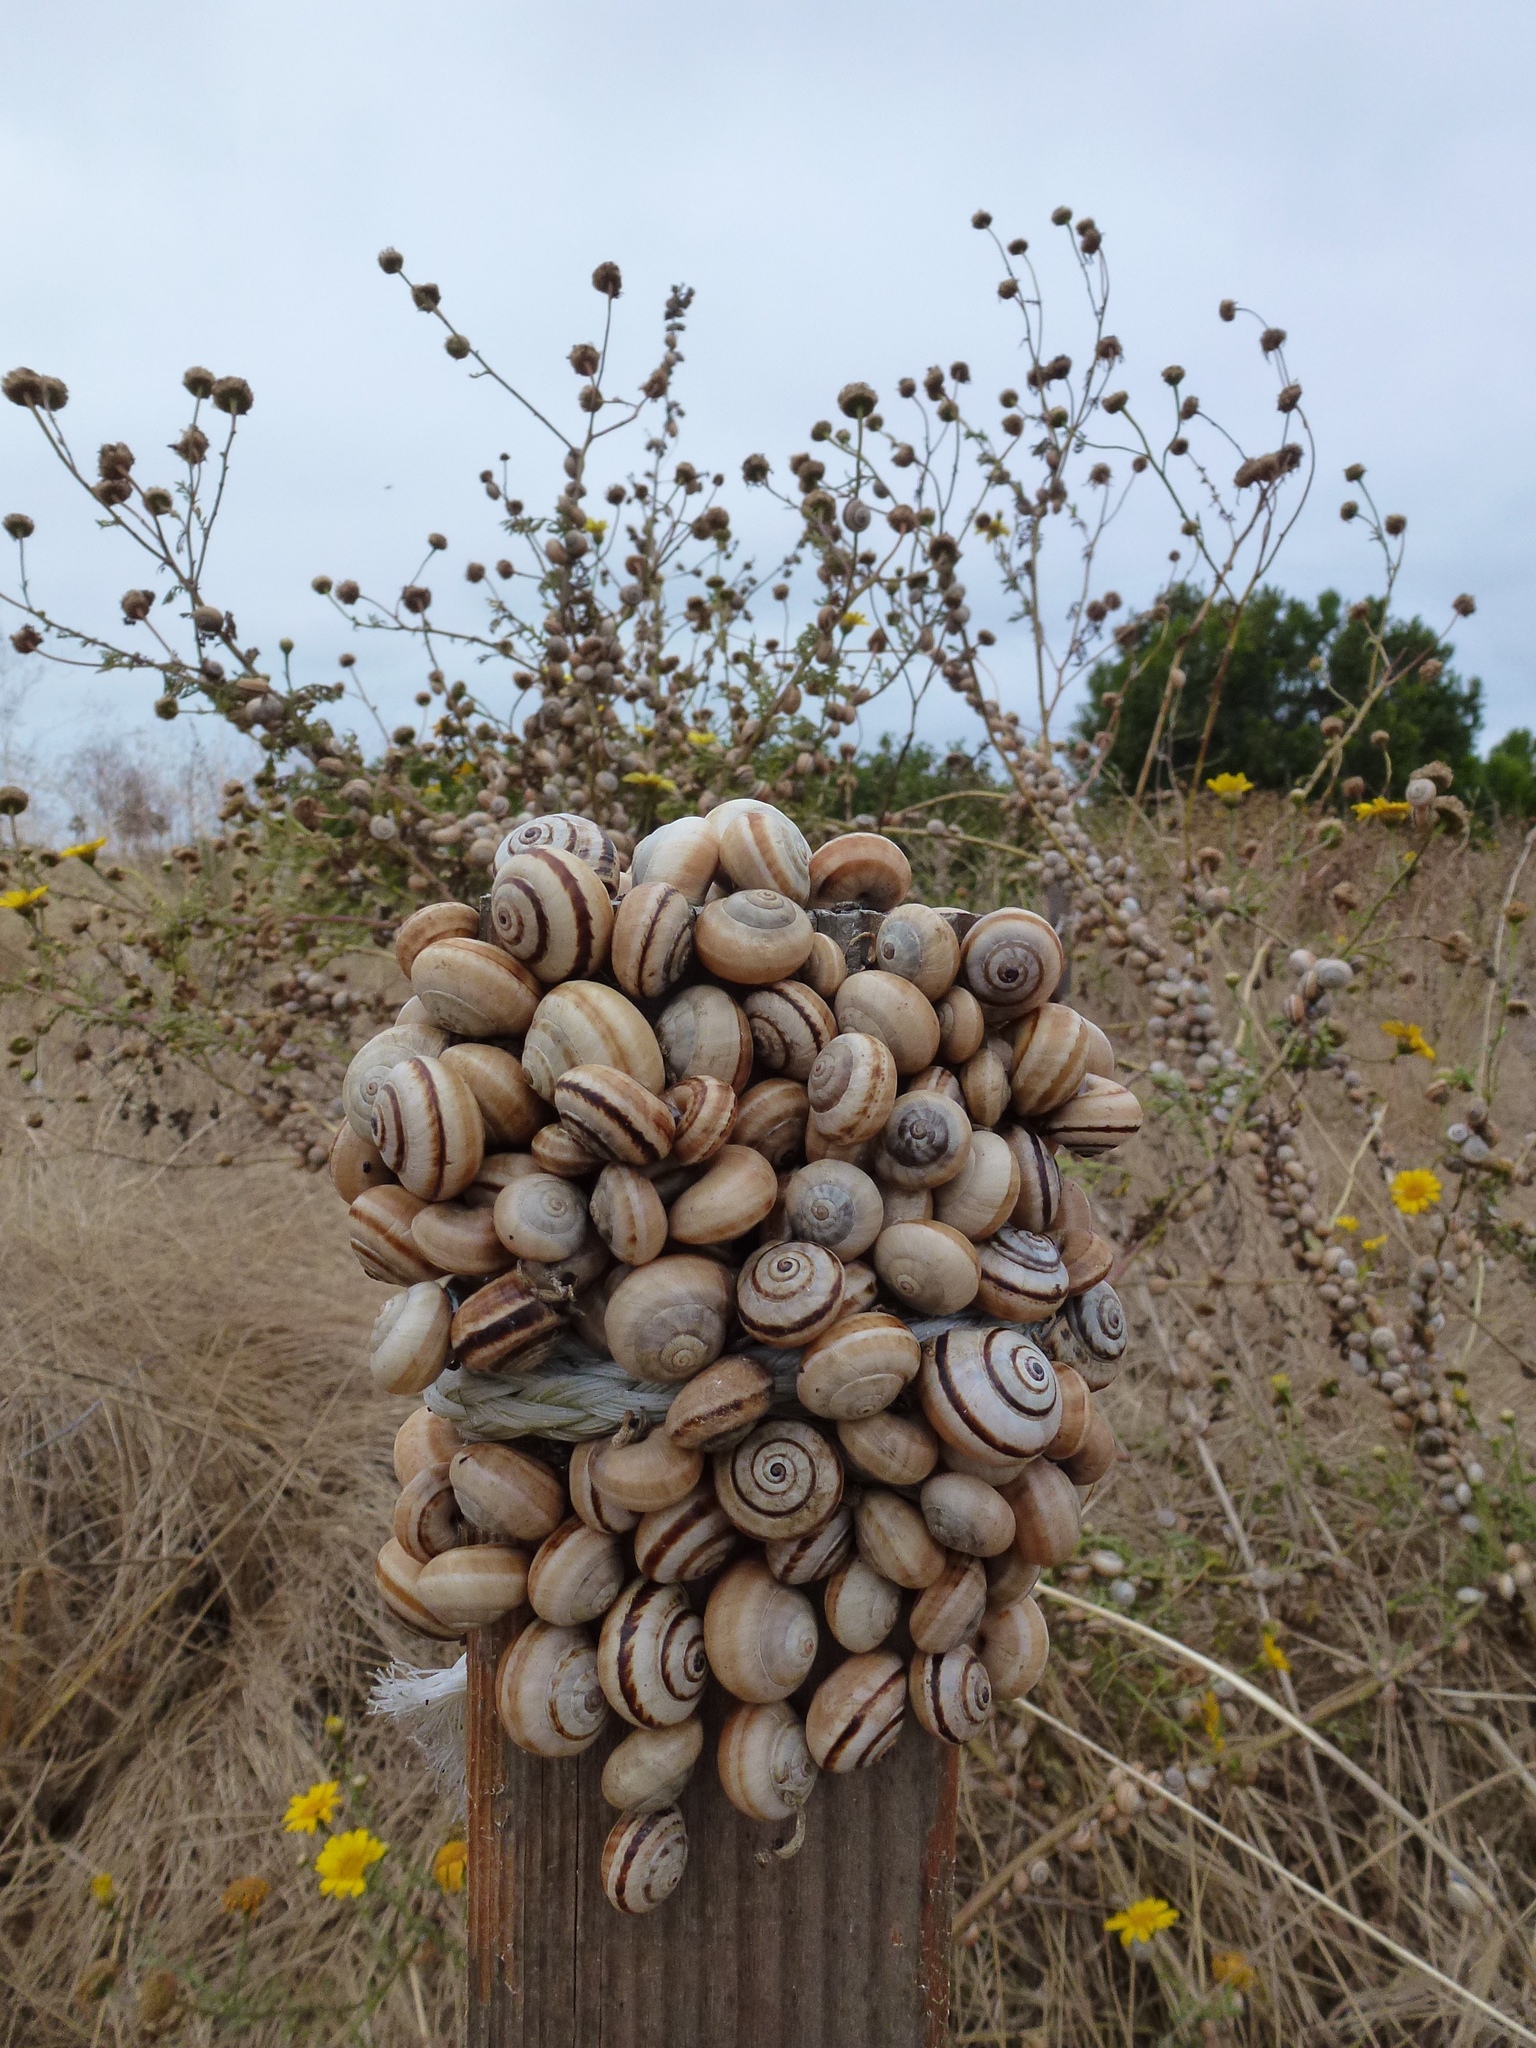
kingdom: Animalia
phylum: Mollusca
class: Gastropoda
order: Stylommatophora
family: Helicidae
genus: Theba
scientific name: Theba pisana
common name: White snail
